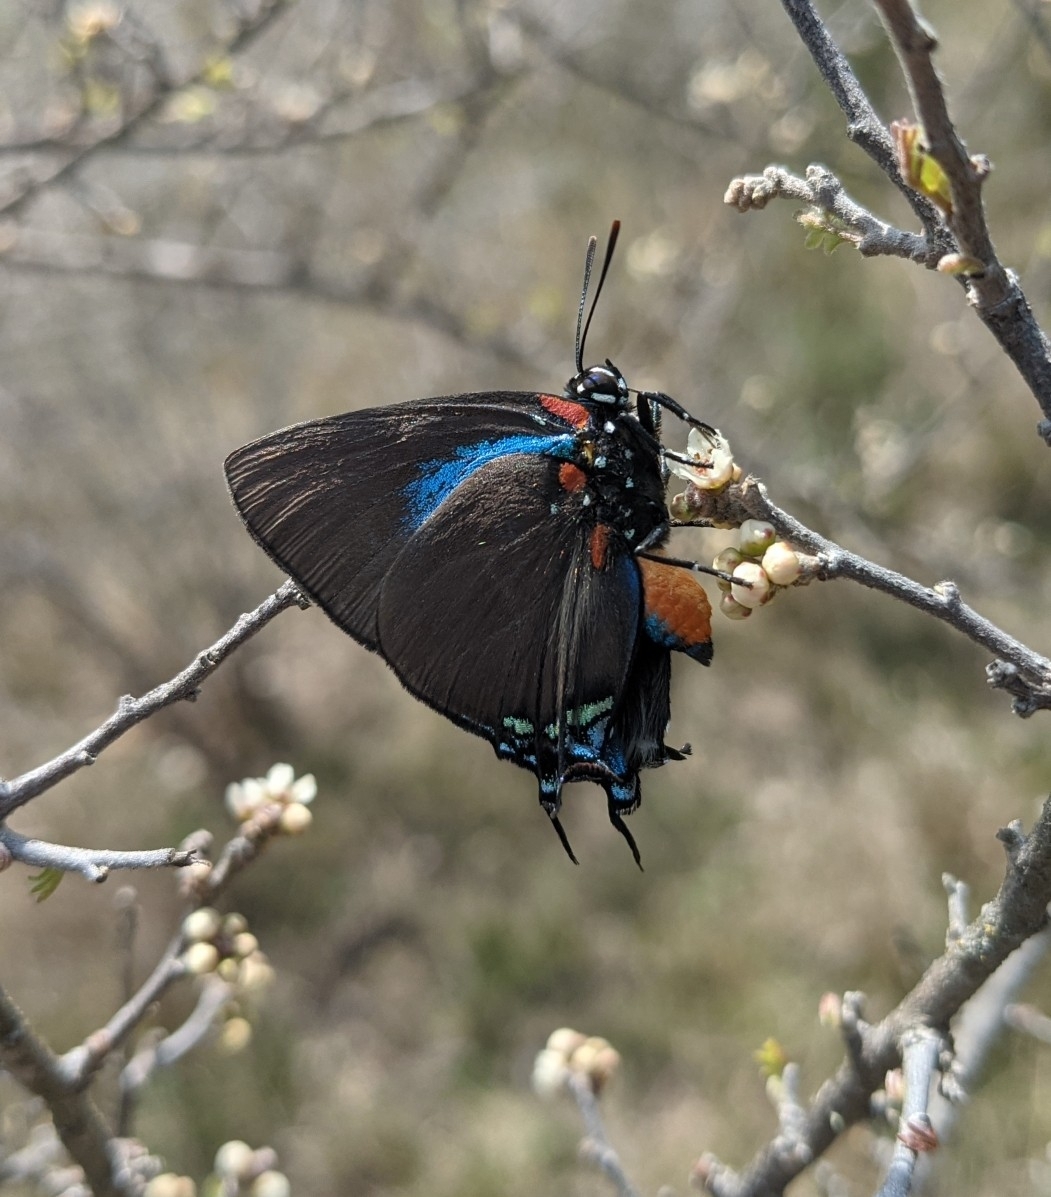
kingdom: Animalia
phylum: Arthropoda
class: Insecta
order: Lepidoptera
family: Lycaenidae
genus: Atlides
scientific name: Atlides halesus
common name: Great purple hairstreak
